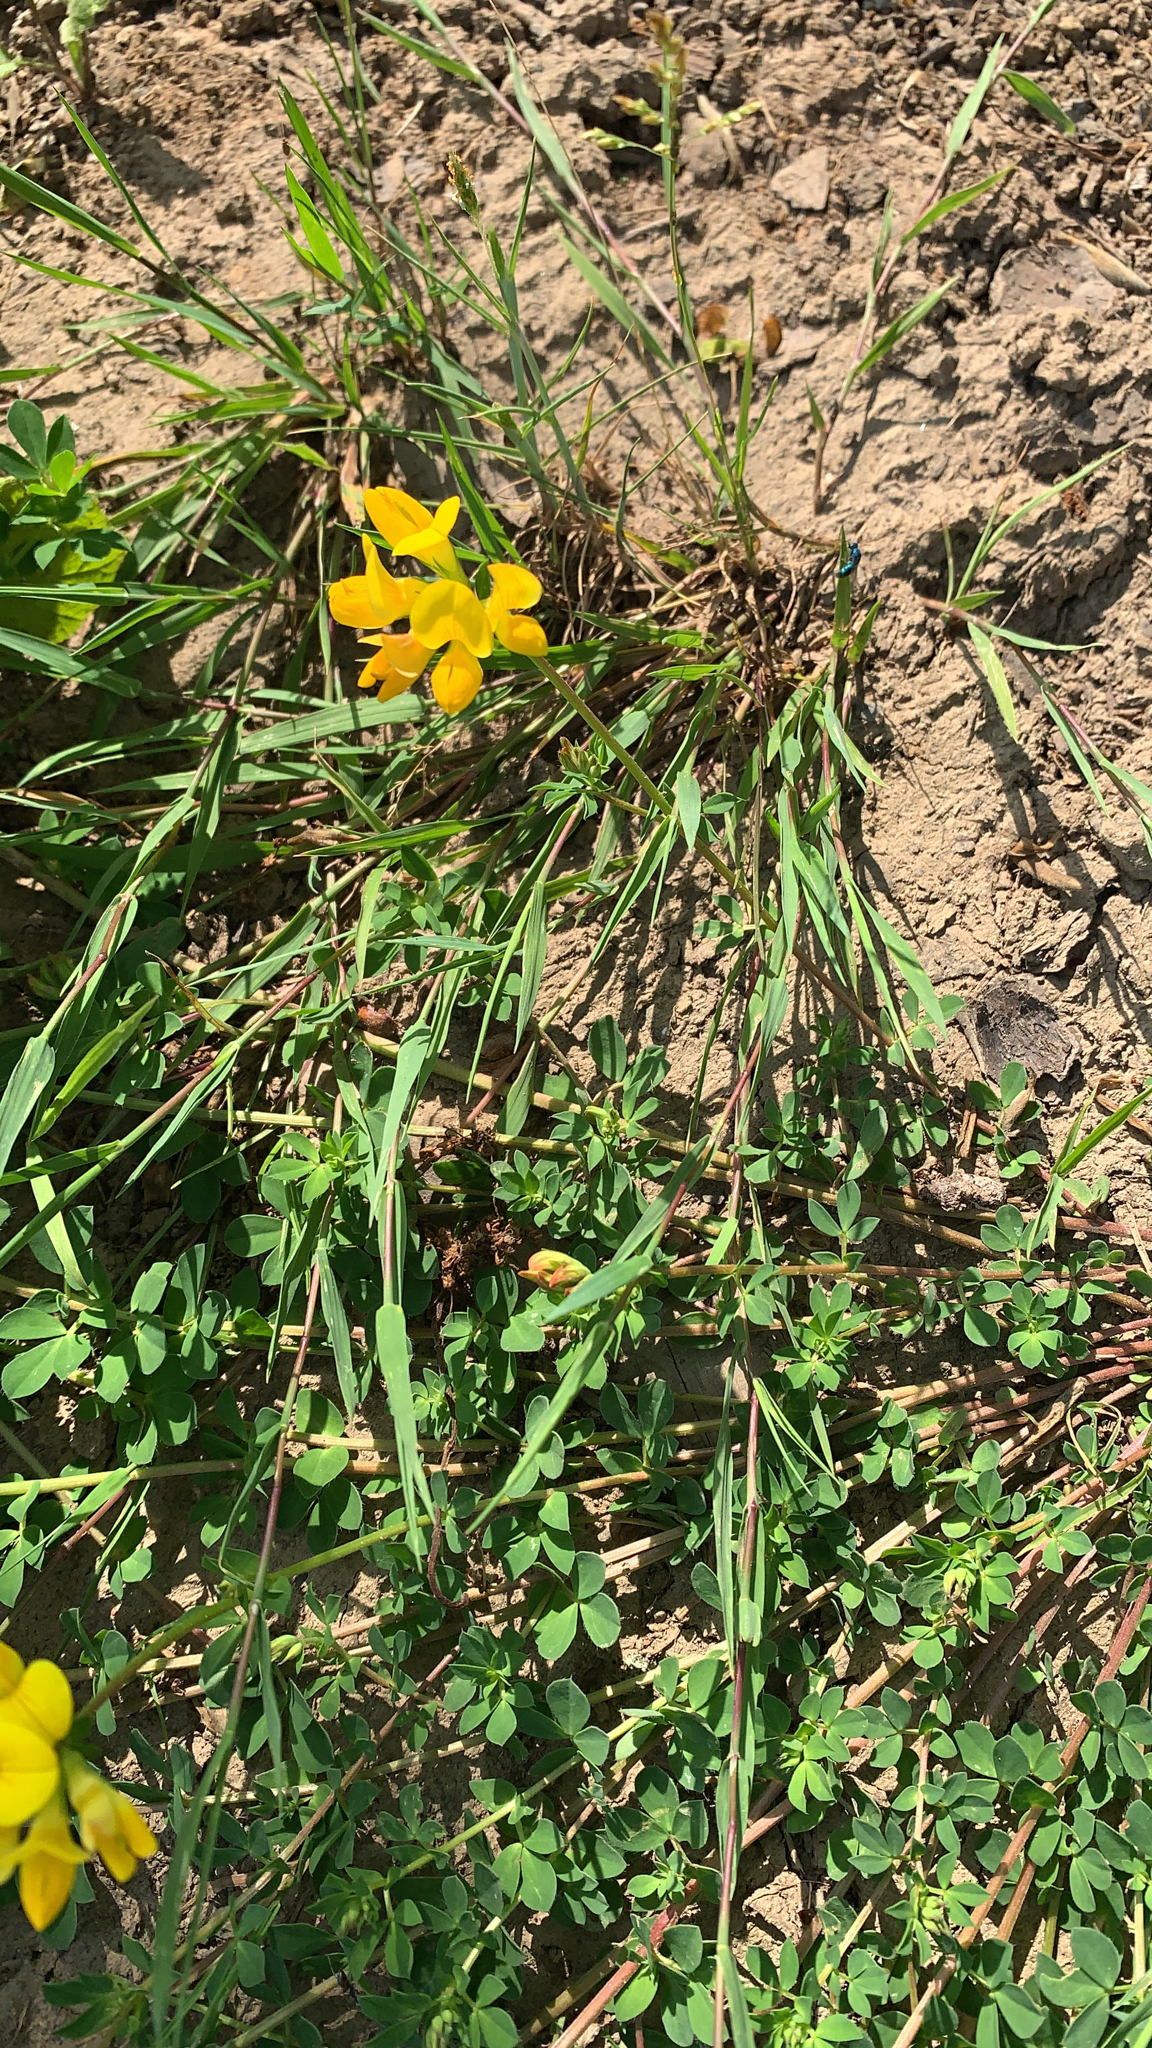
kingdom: Plantae
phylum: Tracheophyta
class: Magnoliopsida
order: Fabales
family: Fabaceae
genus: Lotus
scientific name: Lotus corniculatus
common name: Common bird's-foot-trefoil
